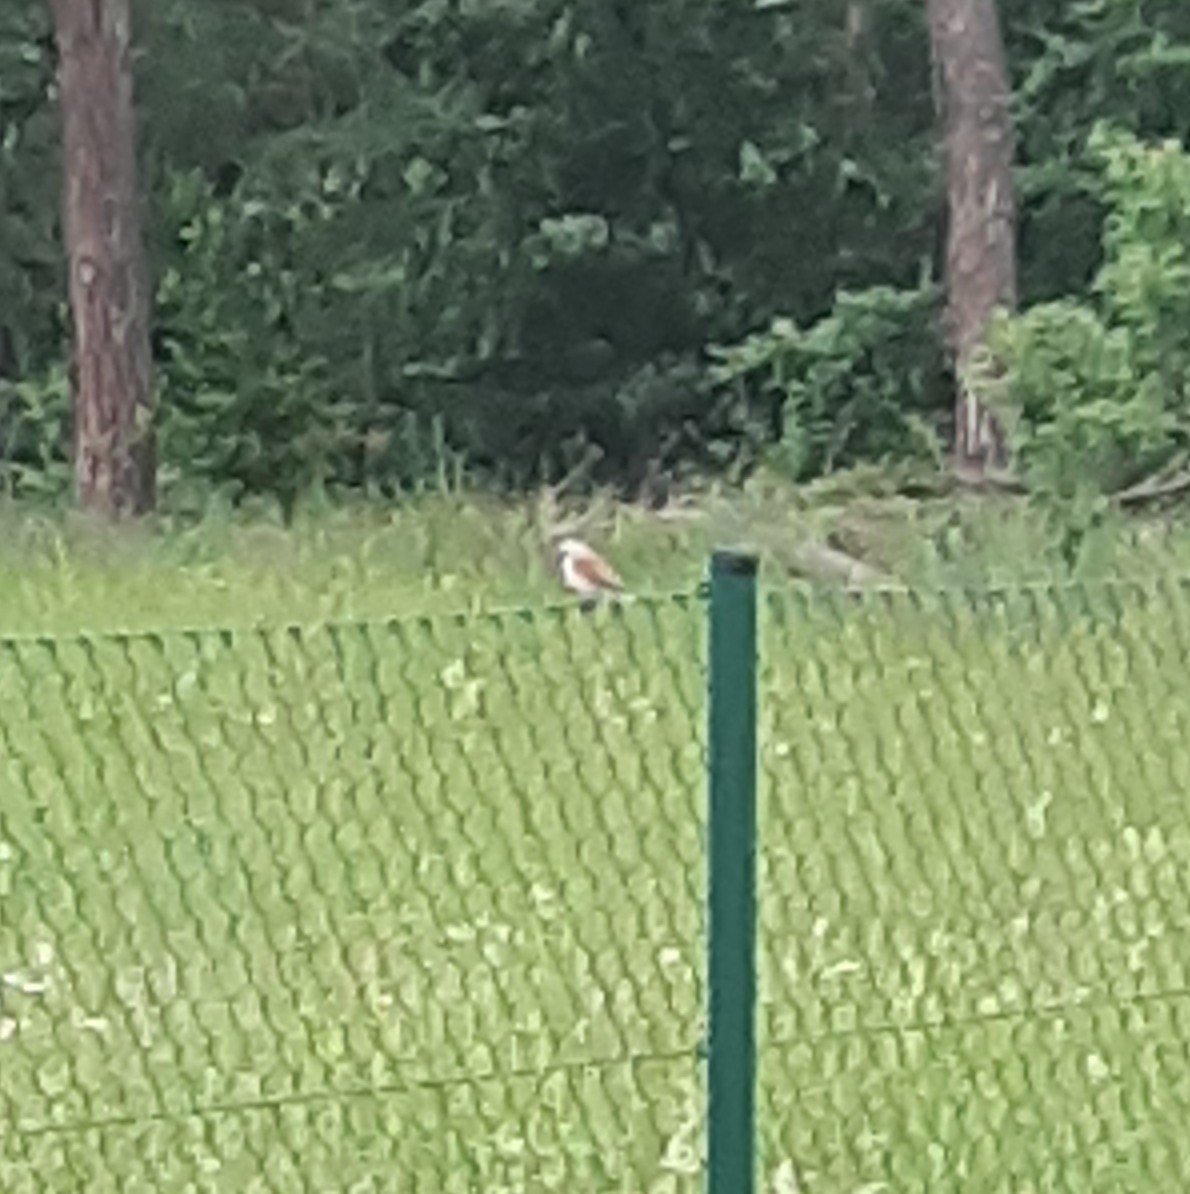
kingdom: Animalia
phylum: Chordata
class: Aves
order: Passeriformes
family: Laniidae
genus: Lanius
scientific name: Lanius collurio
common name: Red-backed shrike
